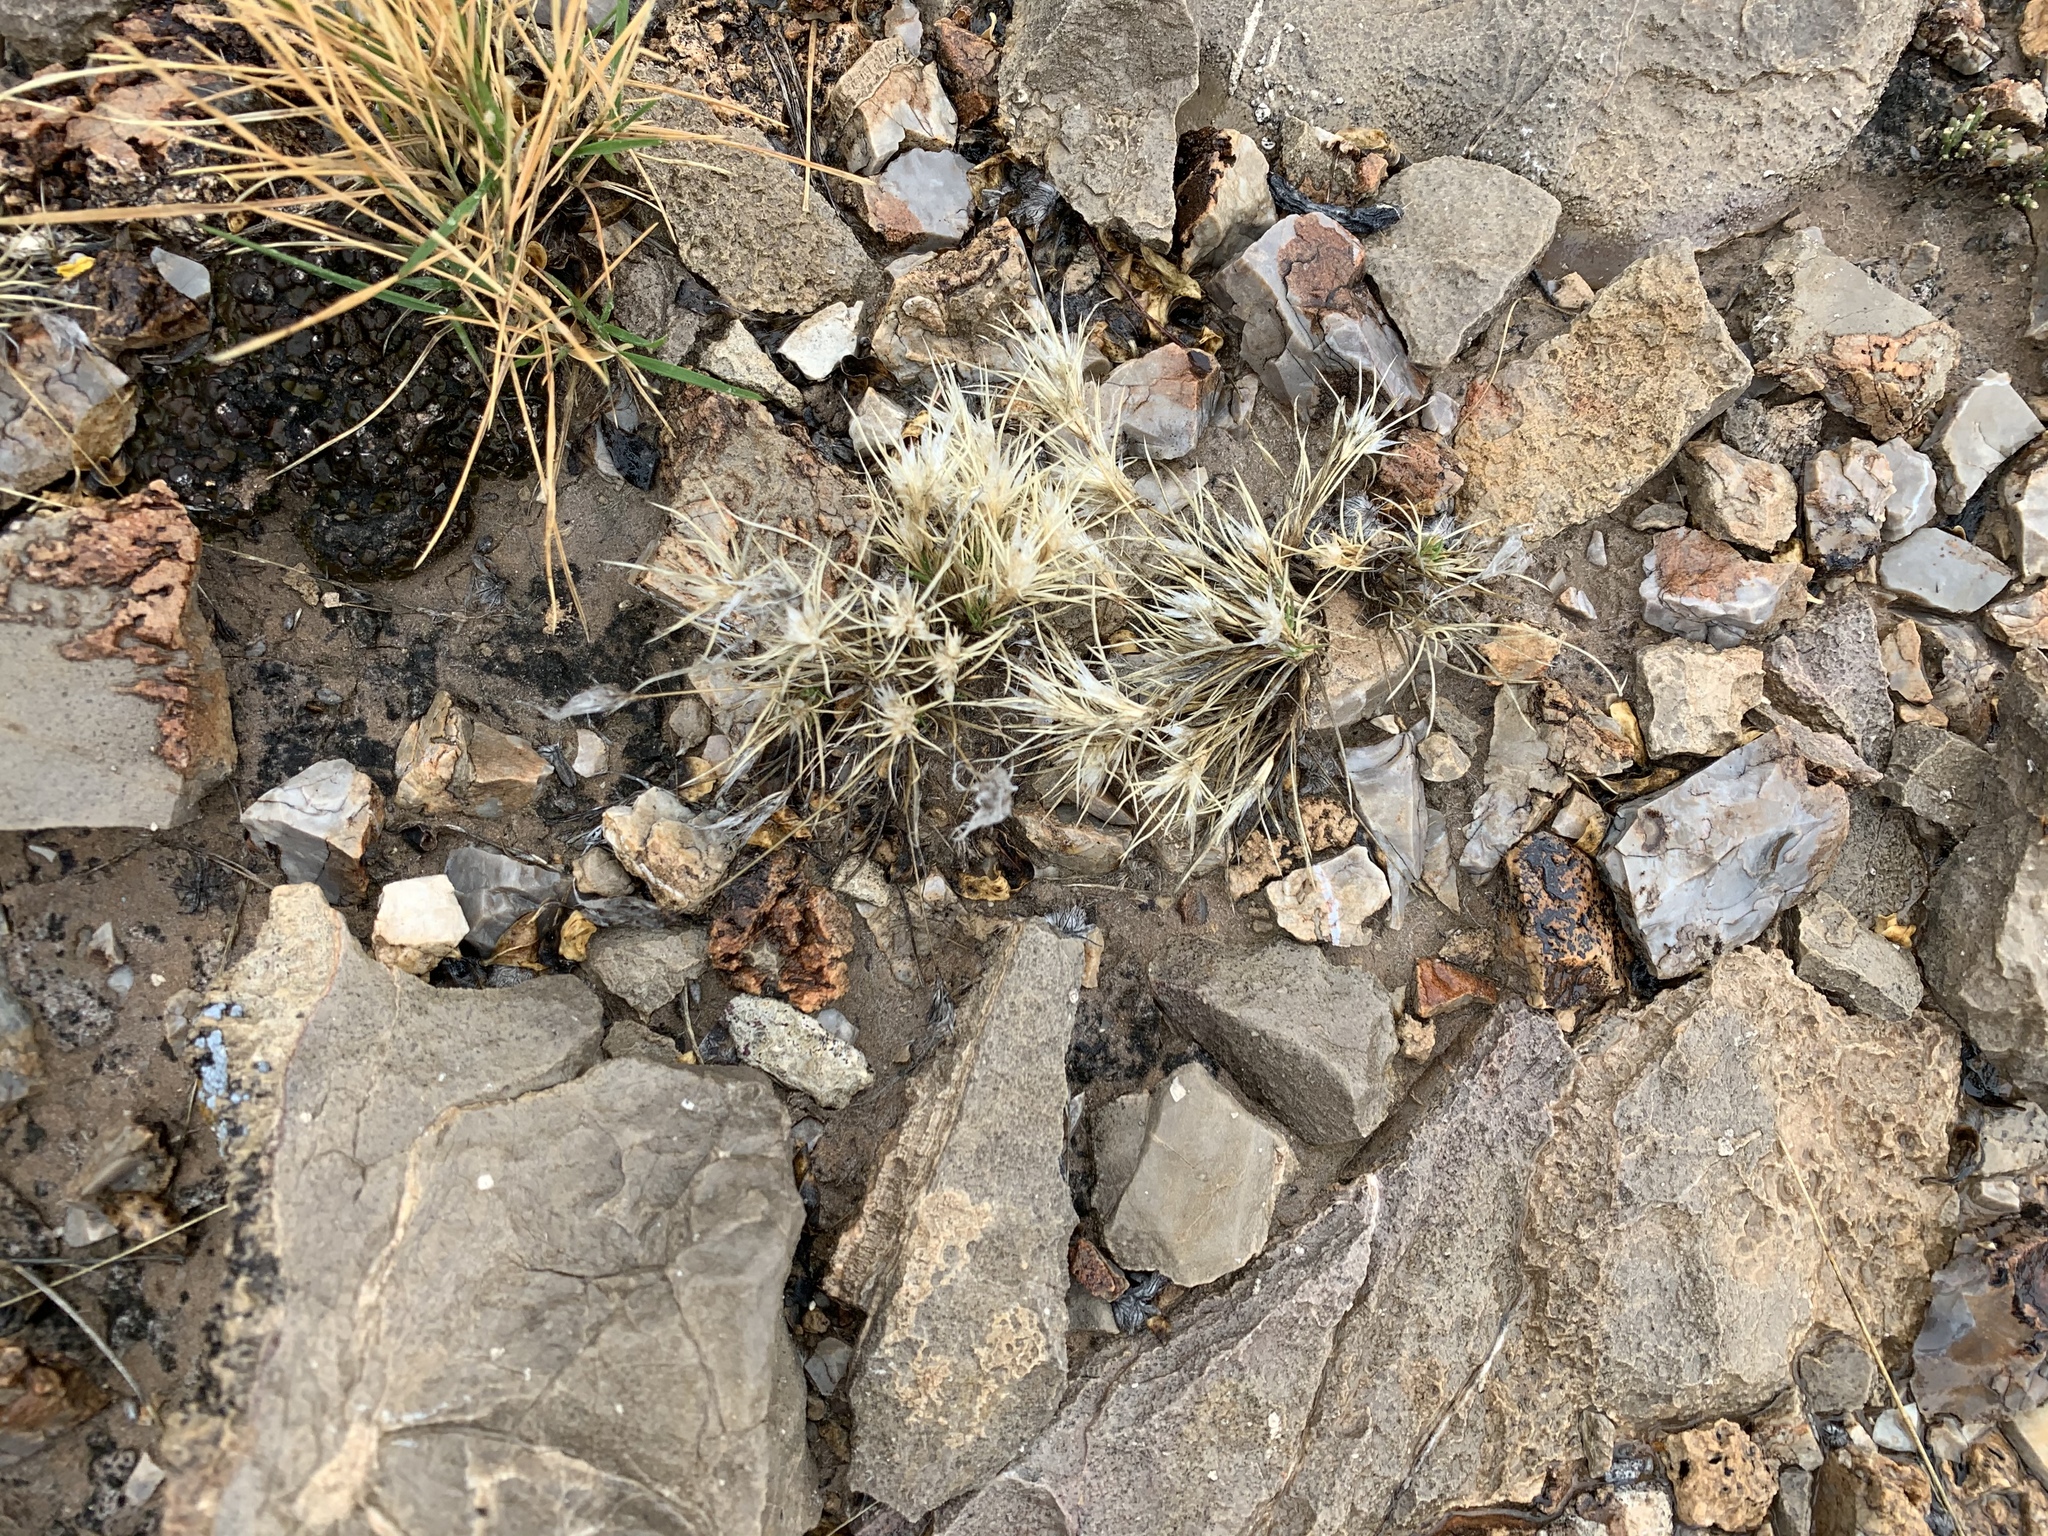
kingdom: Plantae
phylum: Tracheophyta
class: Liliopsida
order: Poales
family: Poaceae
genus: Dasyochloa
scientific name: Dasyochloa pulchella
